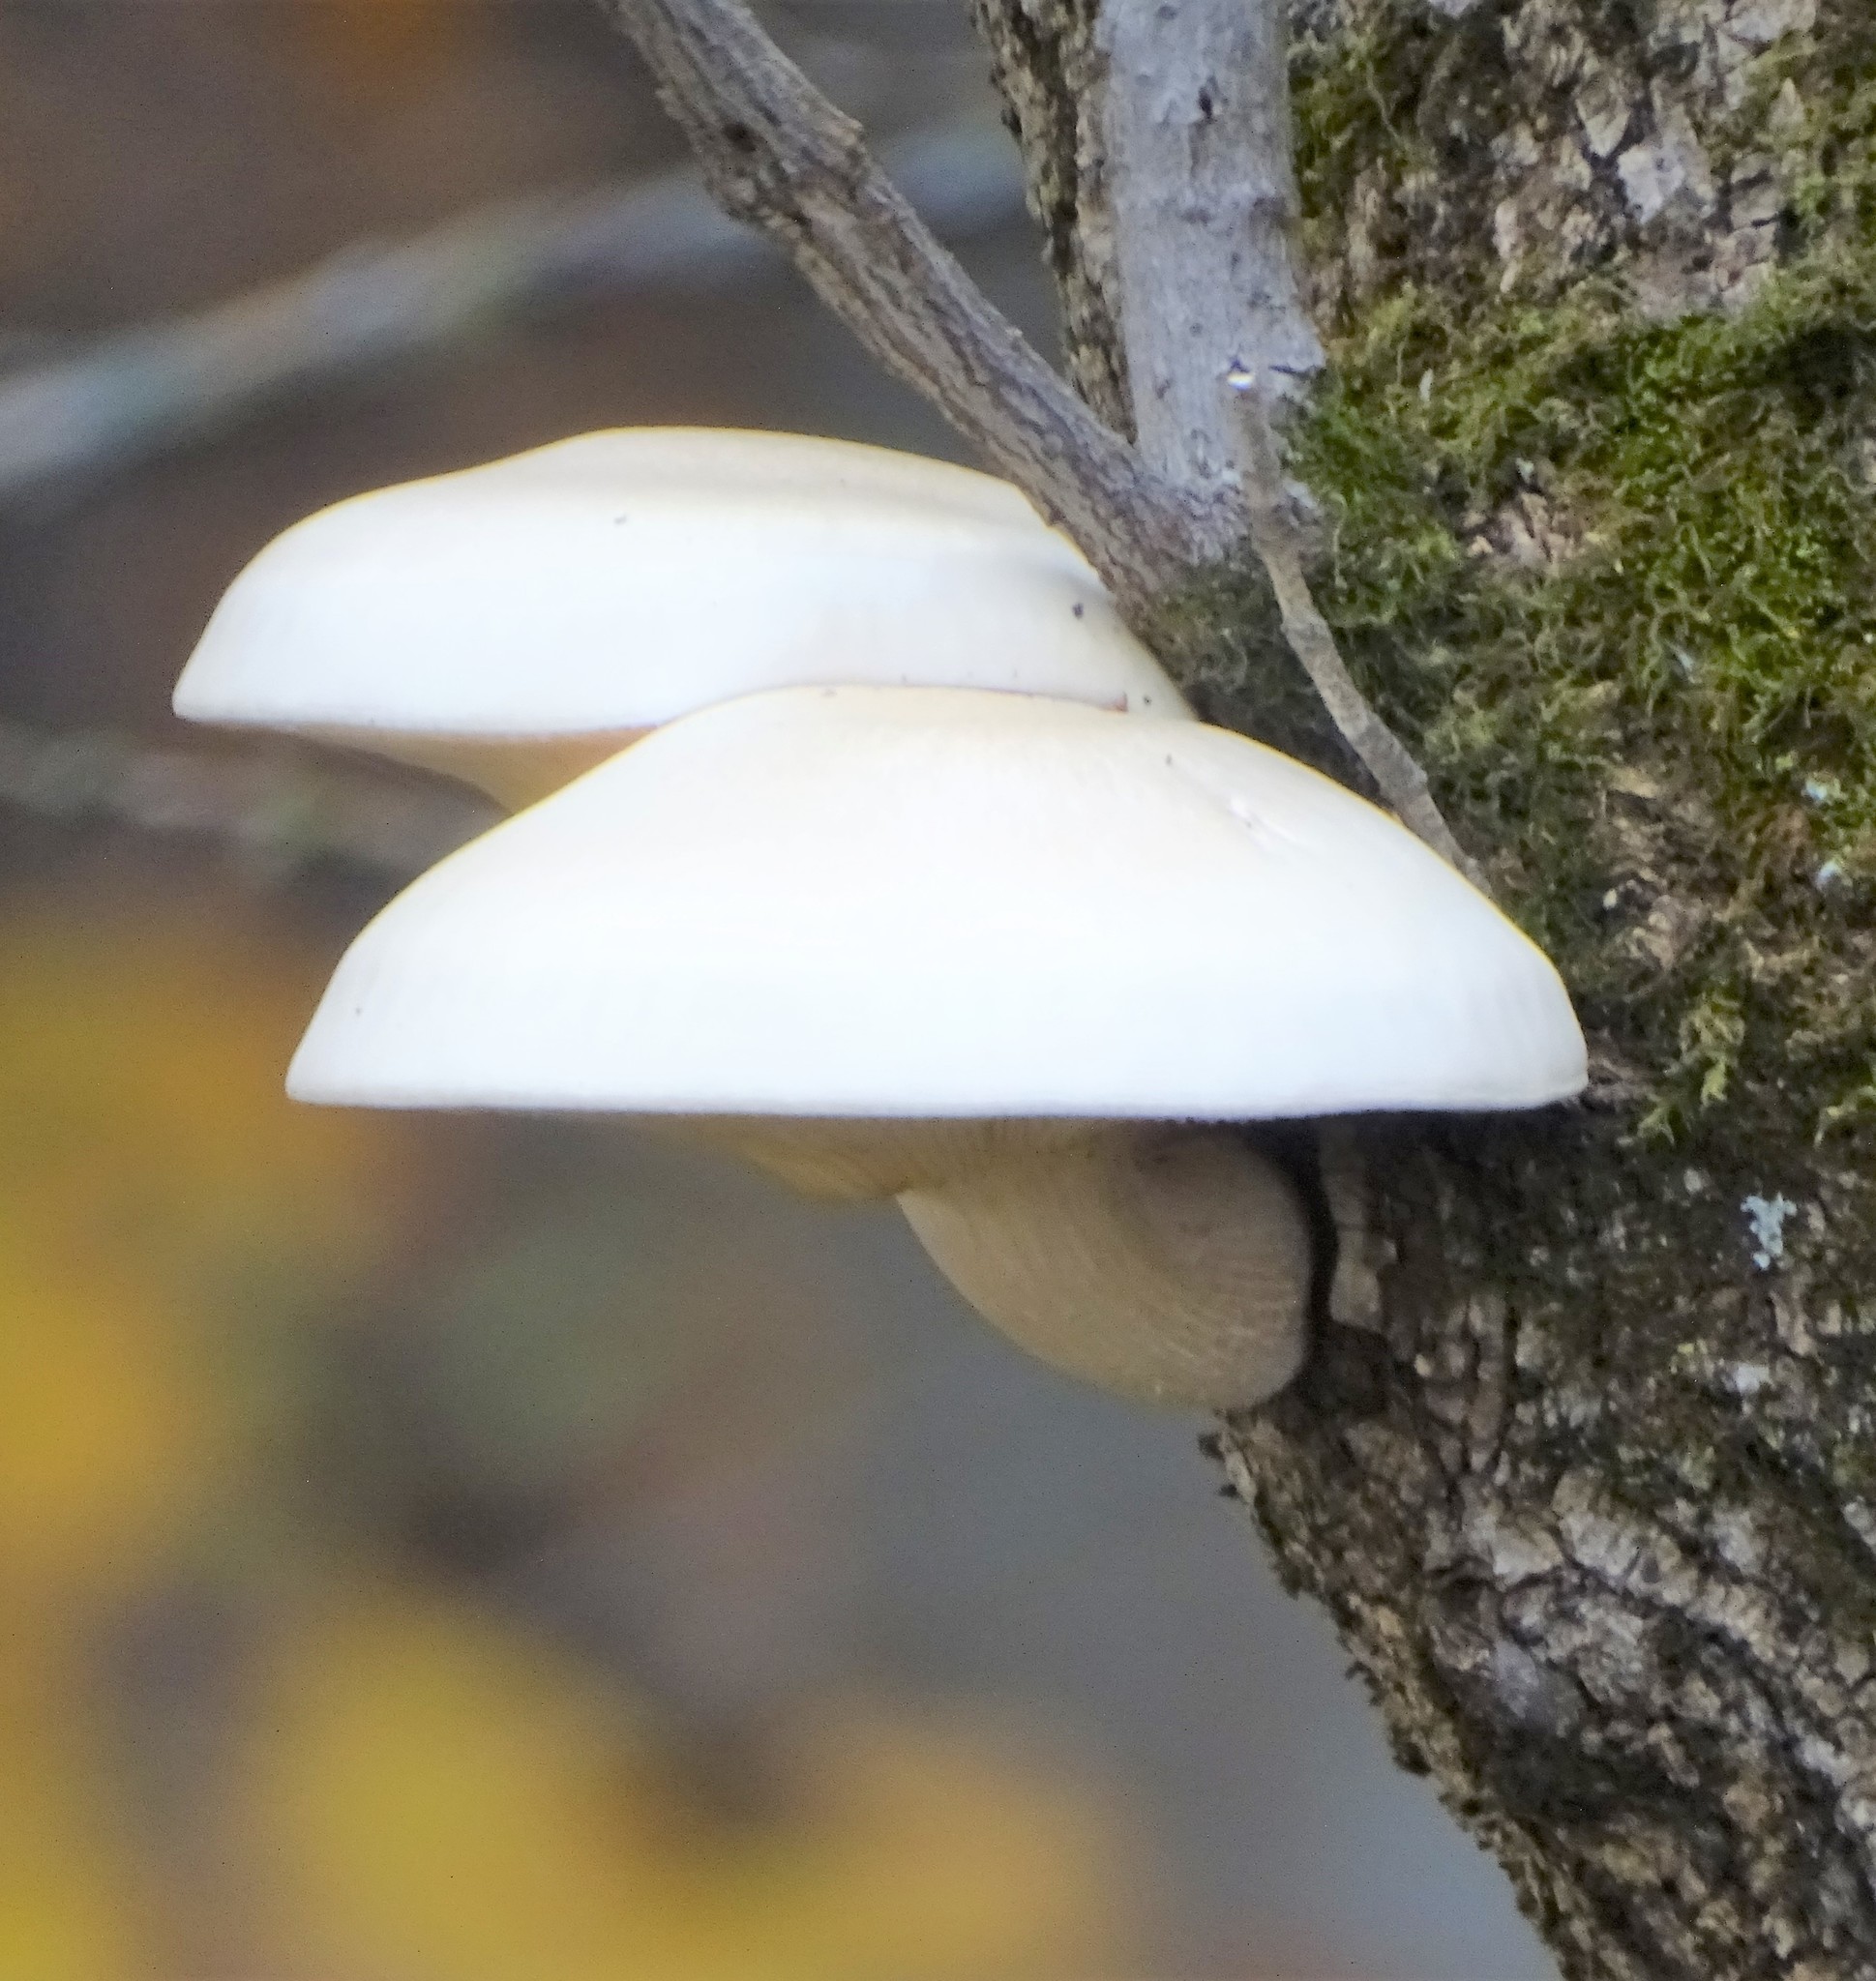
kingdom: Fungi
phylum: Basidiomycota
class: Agaricomycetes
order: Agaricales
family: Lyophyllaceae
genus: Hypsizygus
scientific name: Hypsizygus ulmarius
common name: Elm leech
